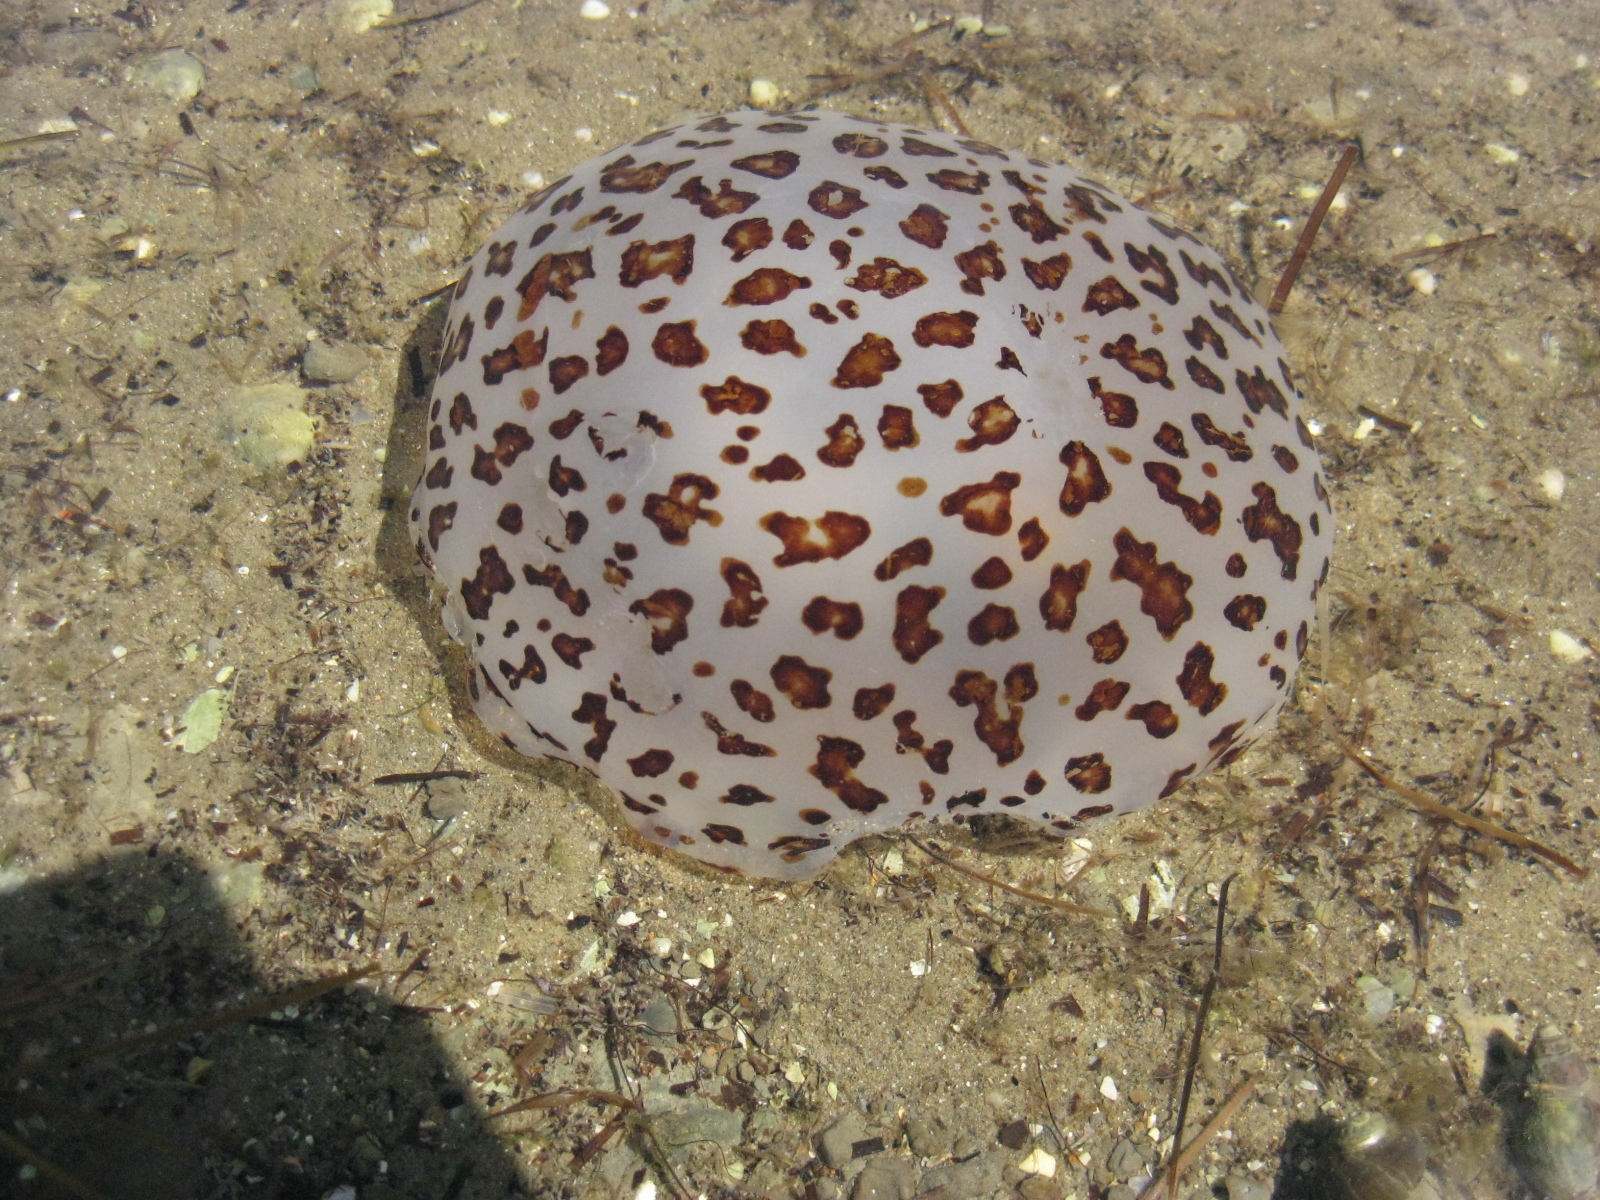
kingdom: Animalia
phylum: Cnidaria
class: Scyphozoa
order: Semaeostomeae
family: Cyaneidae
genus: Desmonema
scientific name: Desmonema gaudichaudi
